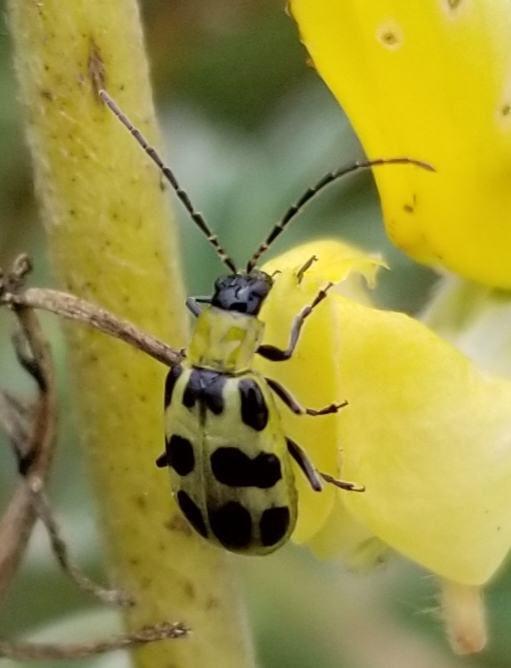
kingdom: Animalia
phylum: Arthropoda
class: Insecta
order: Coleoptera
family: Chrysomelidae
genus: Diabrotica
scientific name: Diabrotica undecimpunctata
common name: Spotted cucumber beetle
